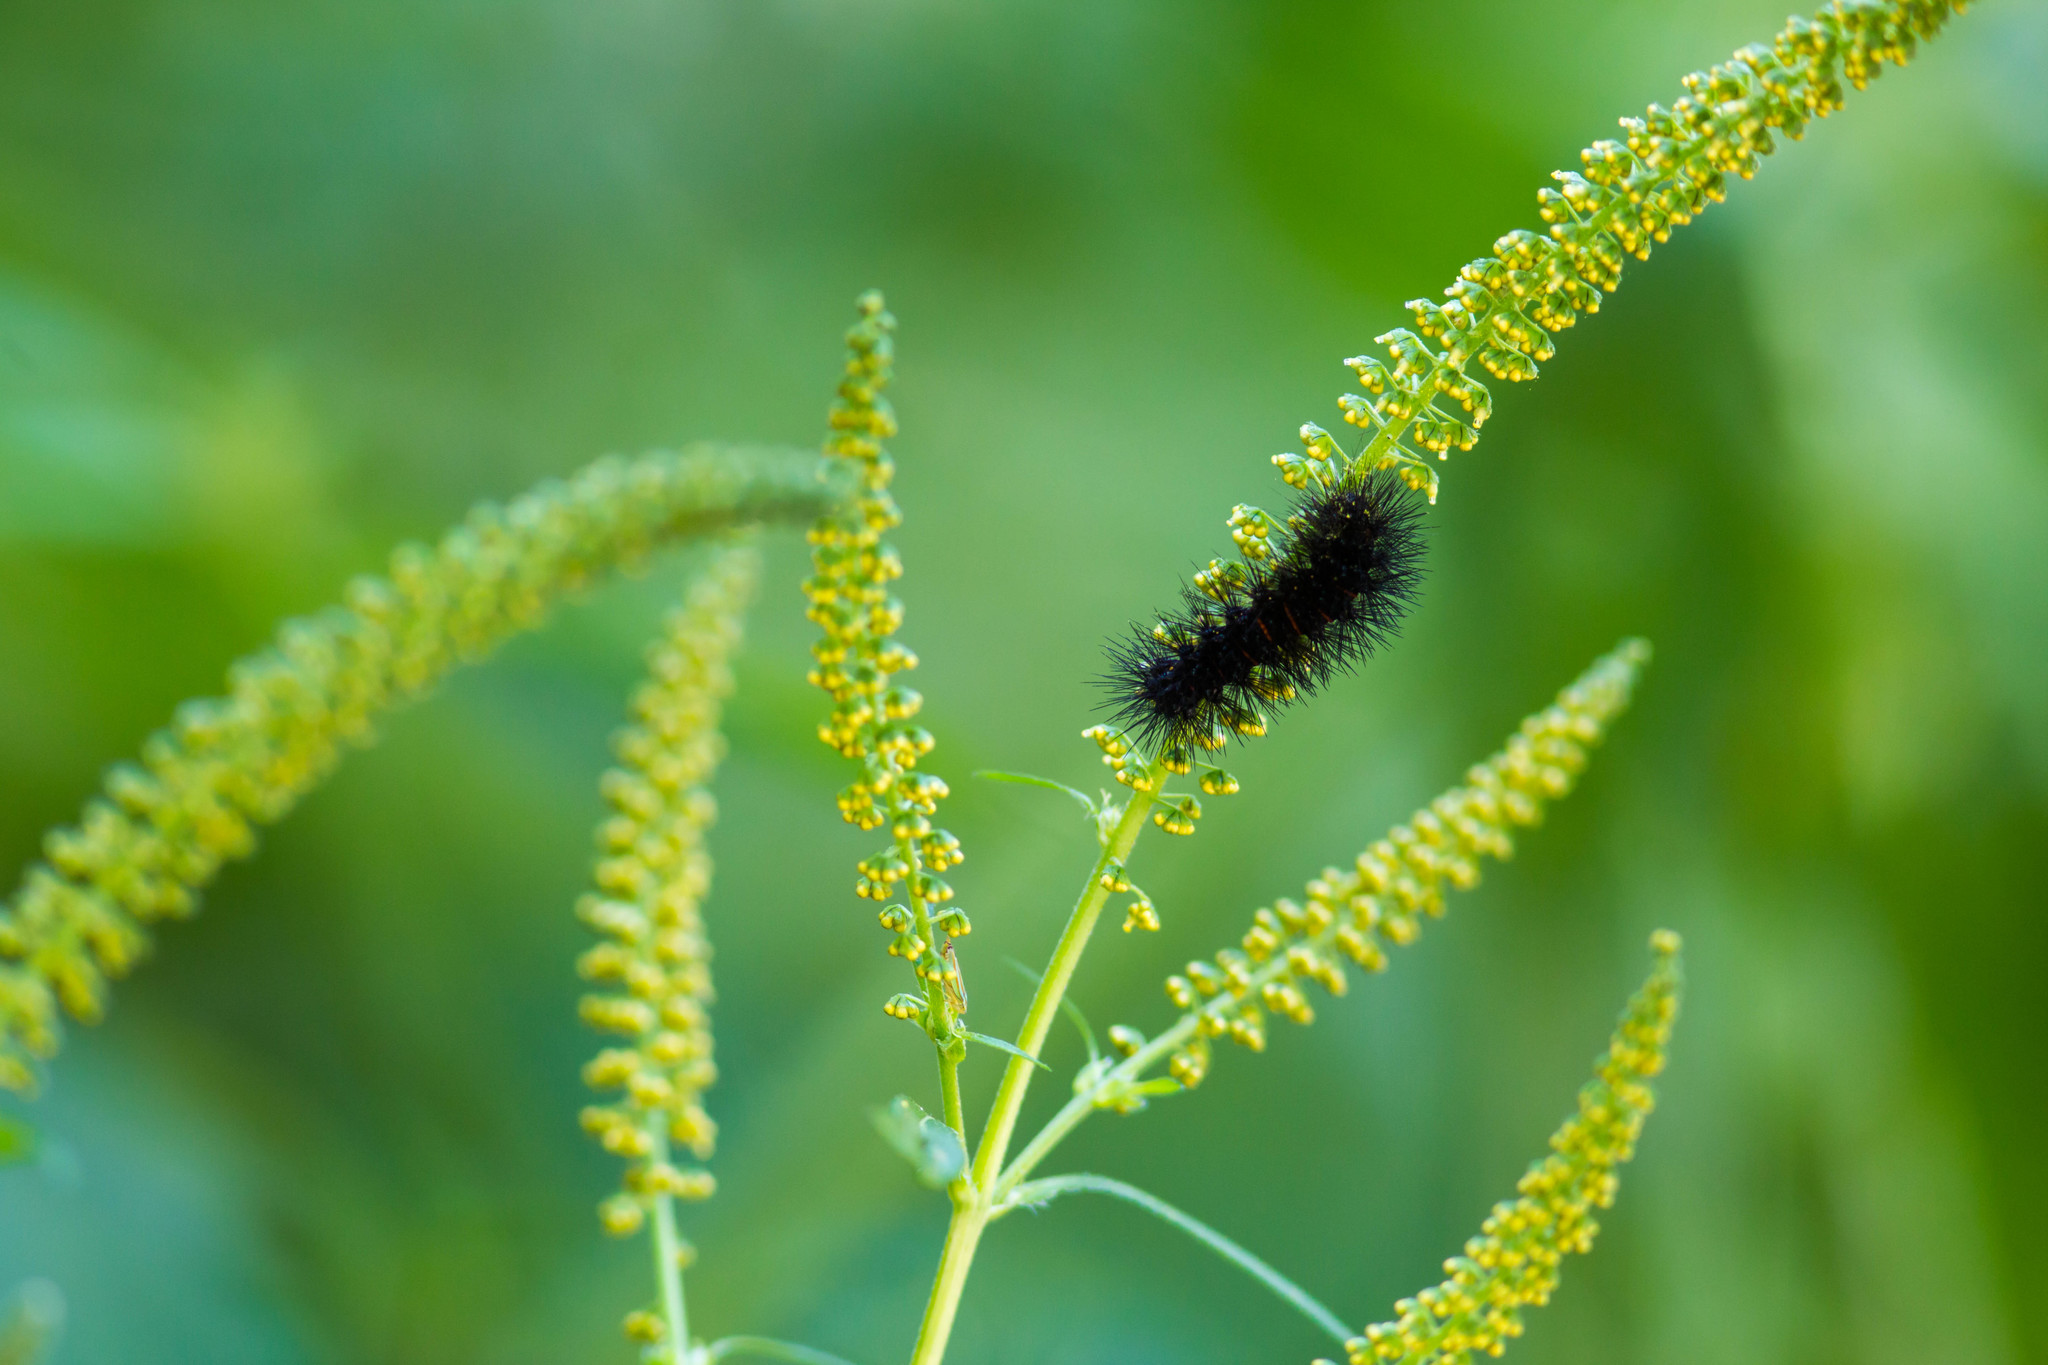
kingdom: Animalia
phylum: Arthropoda
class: Insecta
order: Lepidoptera
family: Erebidae
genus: Hypercompe
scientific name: Hypercompe scribonia
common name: Giant leopard moth
